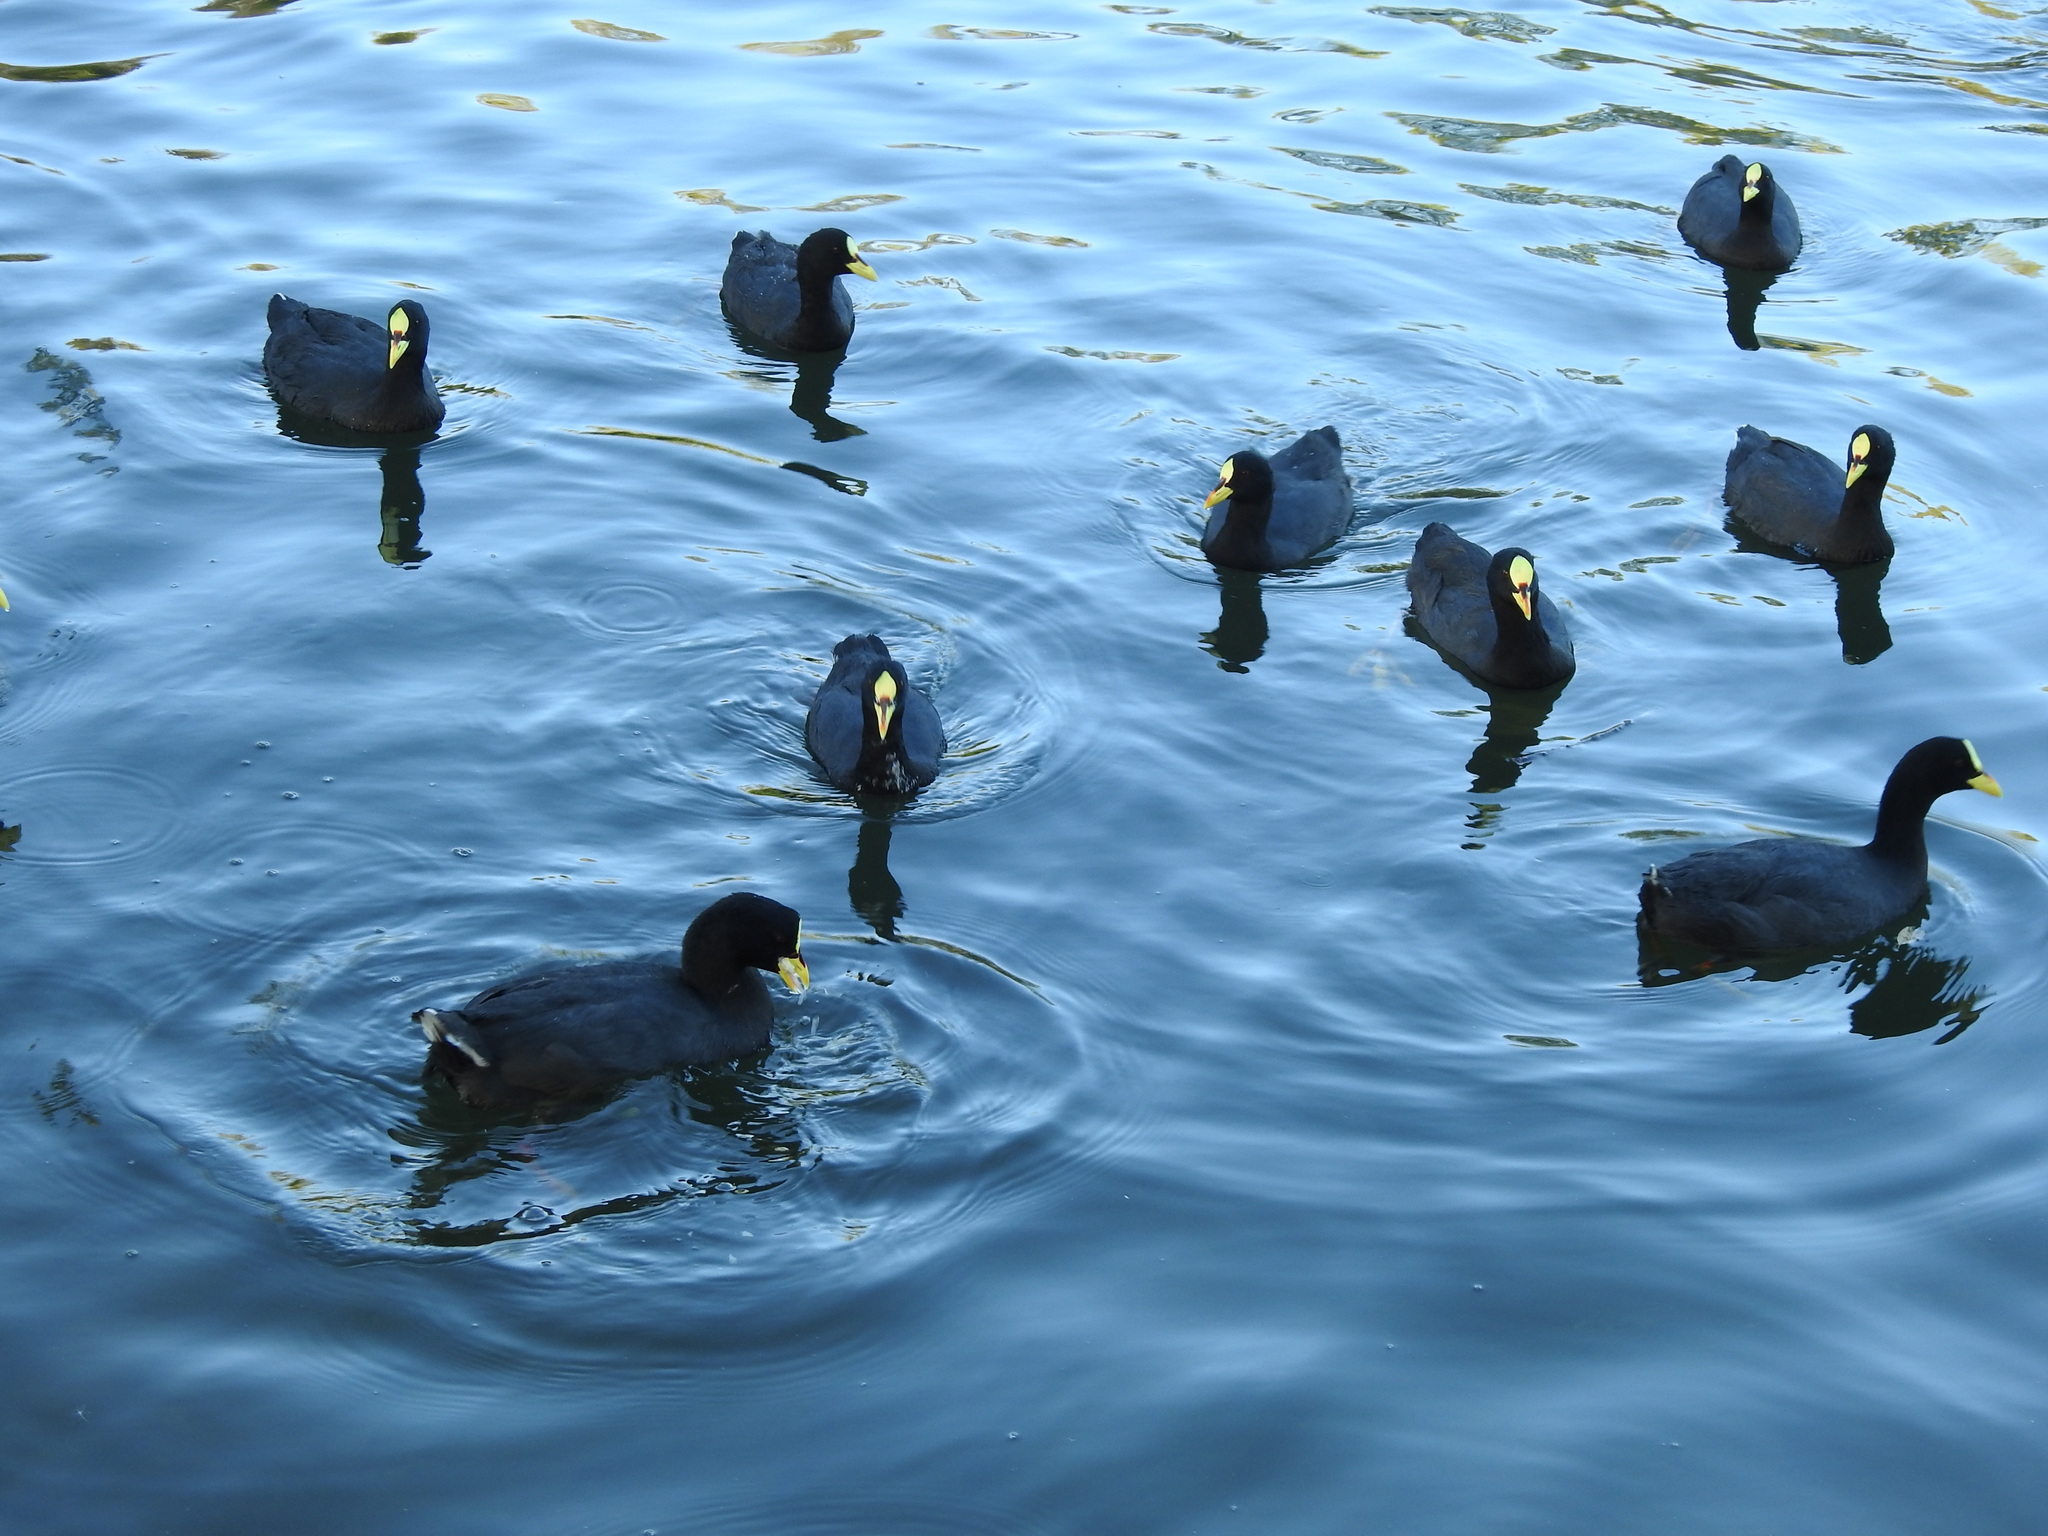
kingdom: Animalia
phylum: Chordata
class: Aves
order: Gruiformes
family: Rallidae
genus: Fulica
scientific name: Fulica armillata
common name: Red-gartered coot
